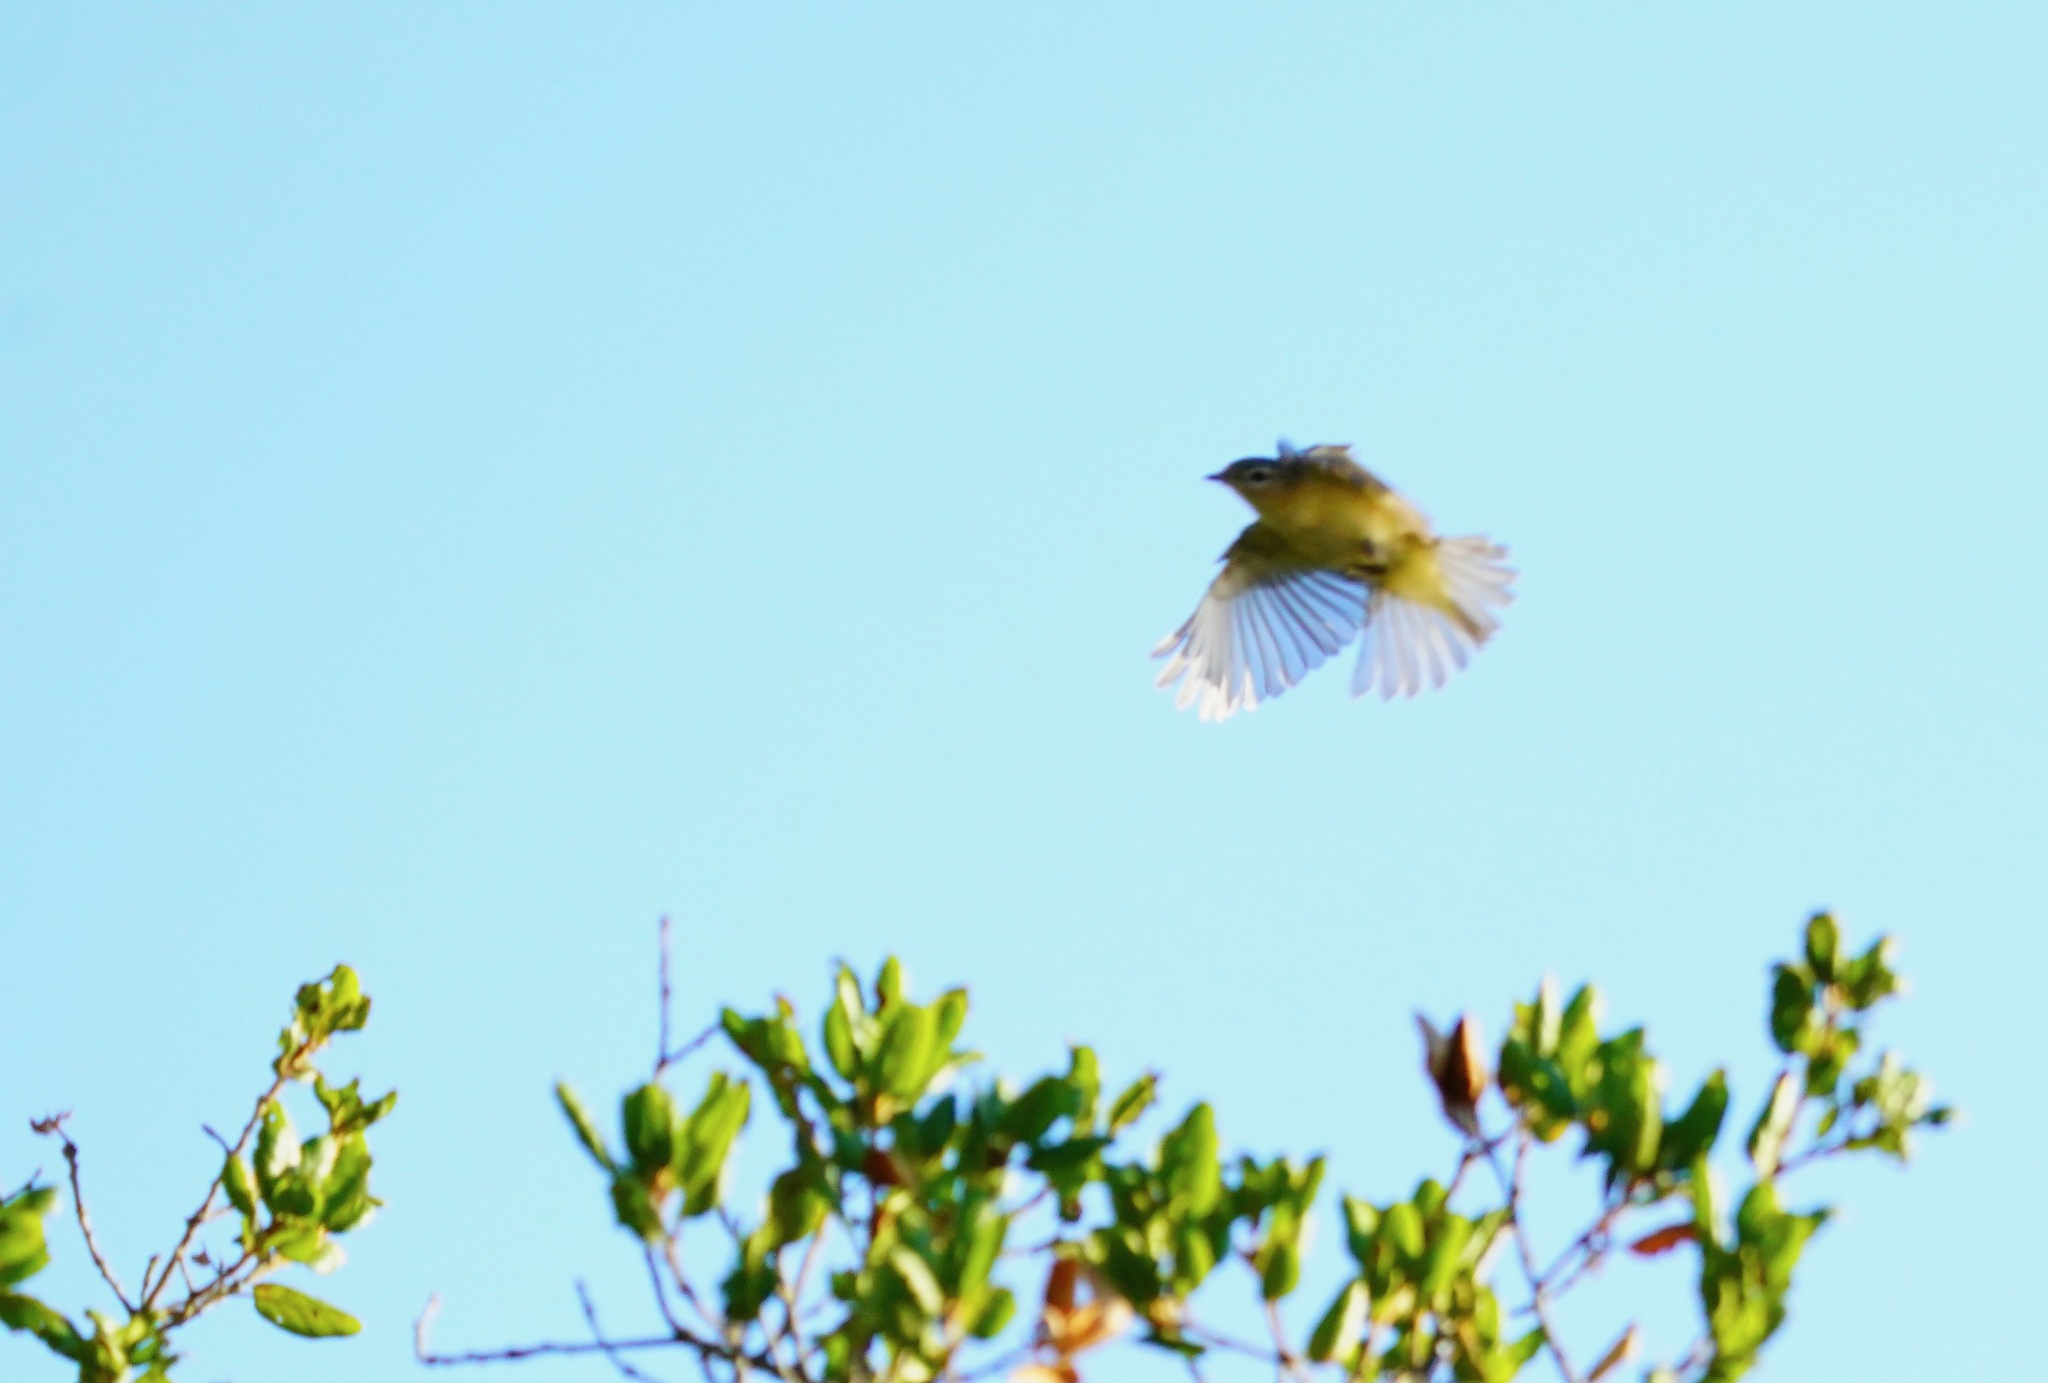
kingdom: Animalia
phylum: Chordata
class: Aves
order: Passeriformes
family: Vireonidae
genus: Vireo
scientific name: Vireo gilvus
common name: Warbling vireo
